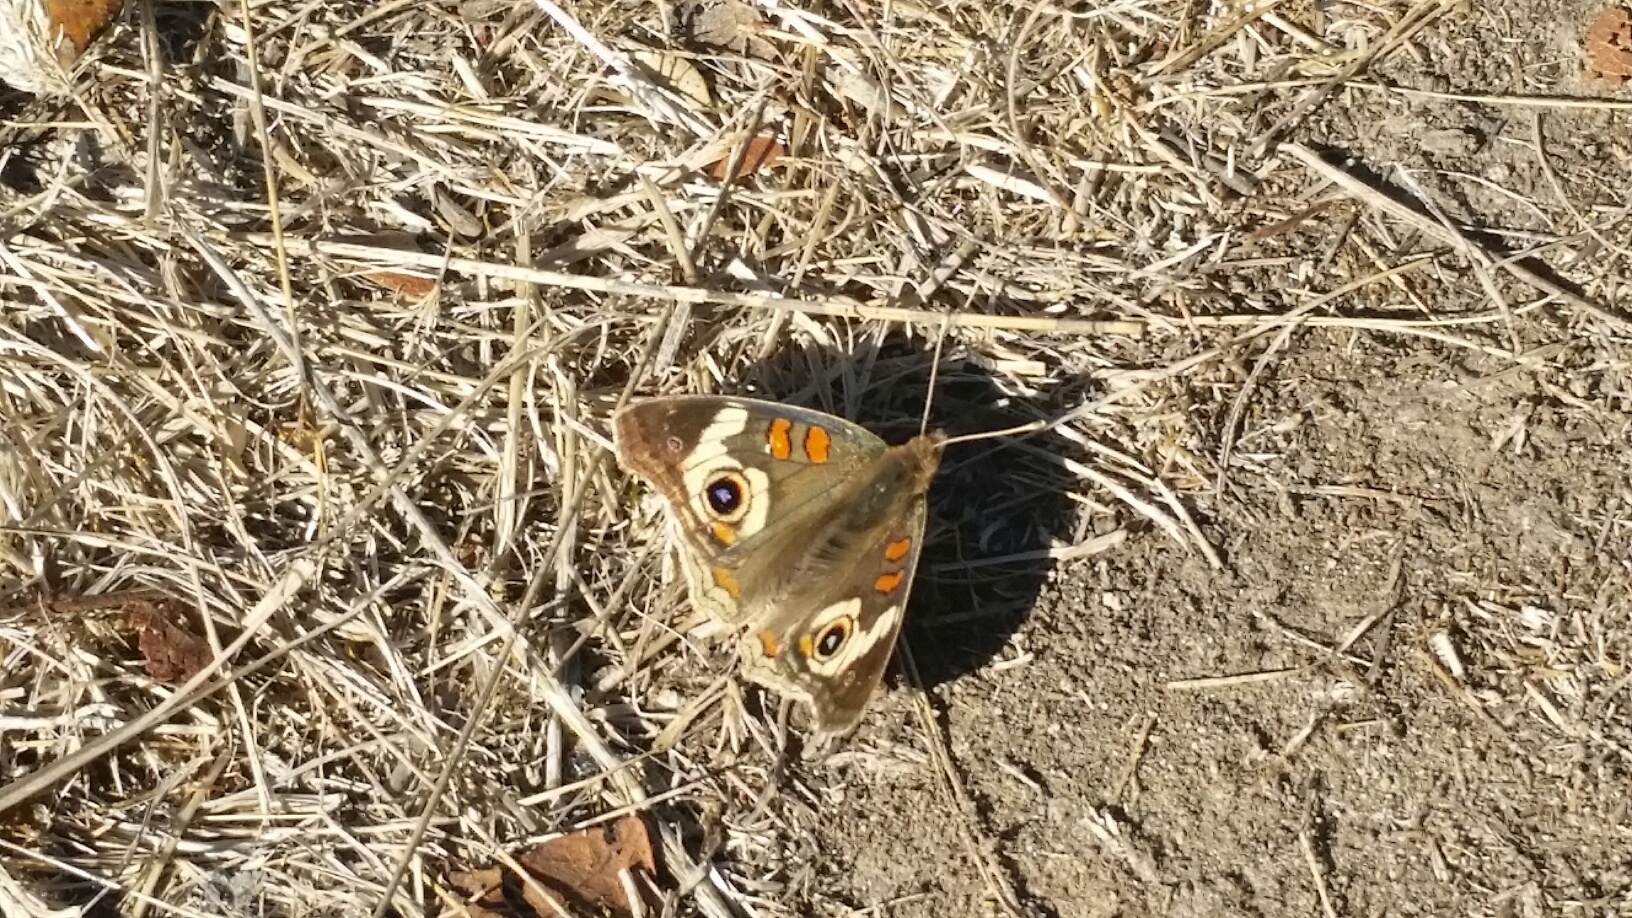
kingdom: Animalia
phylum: Arthropoda
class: Insecta
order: Lepidoptera
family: Nymphalidae
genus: Junonia
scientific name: Junonia grisea
